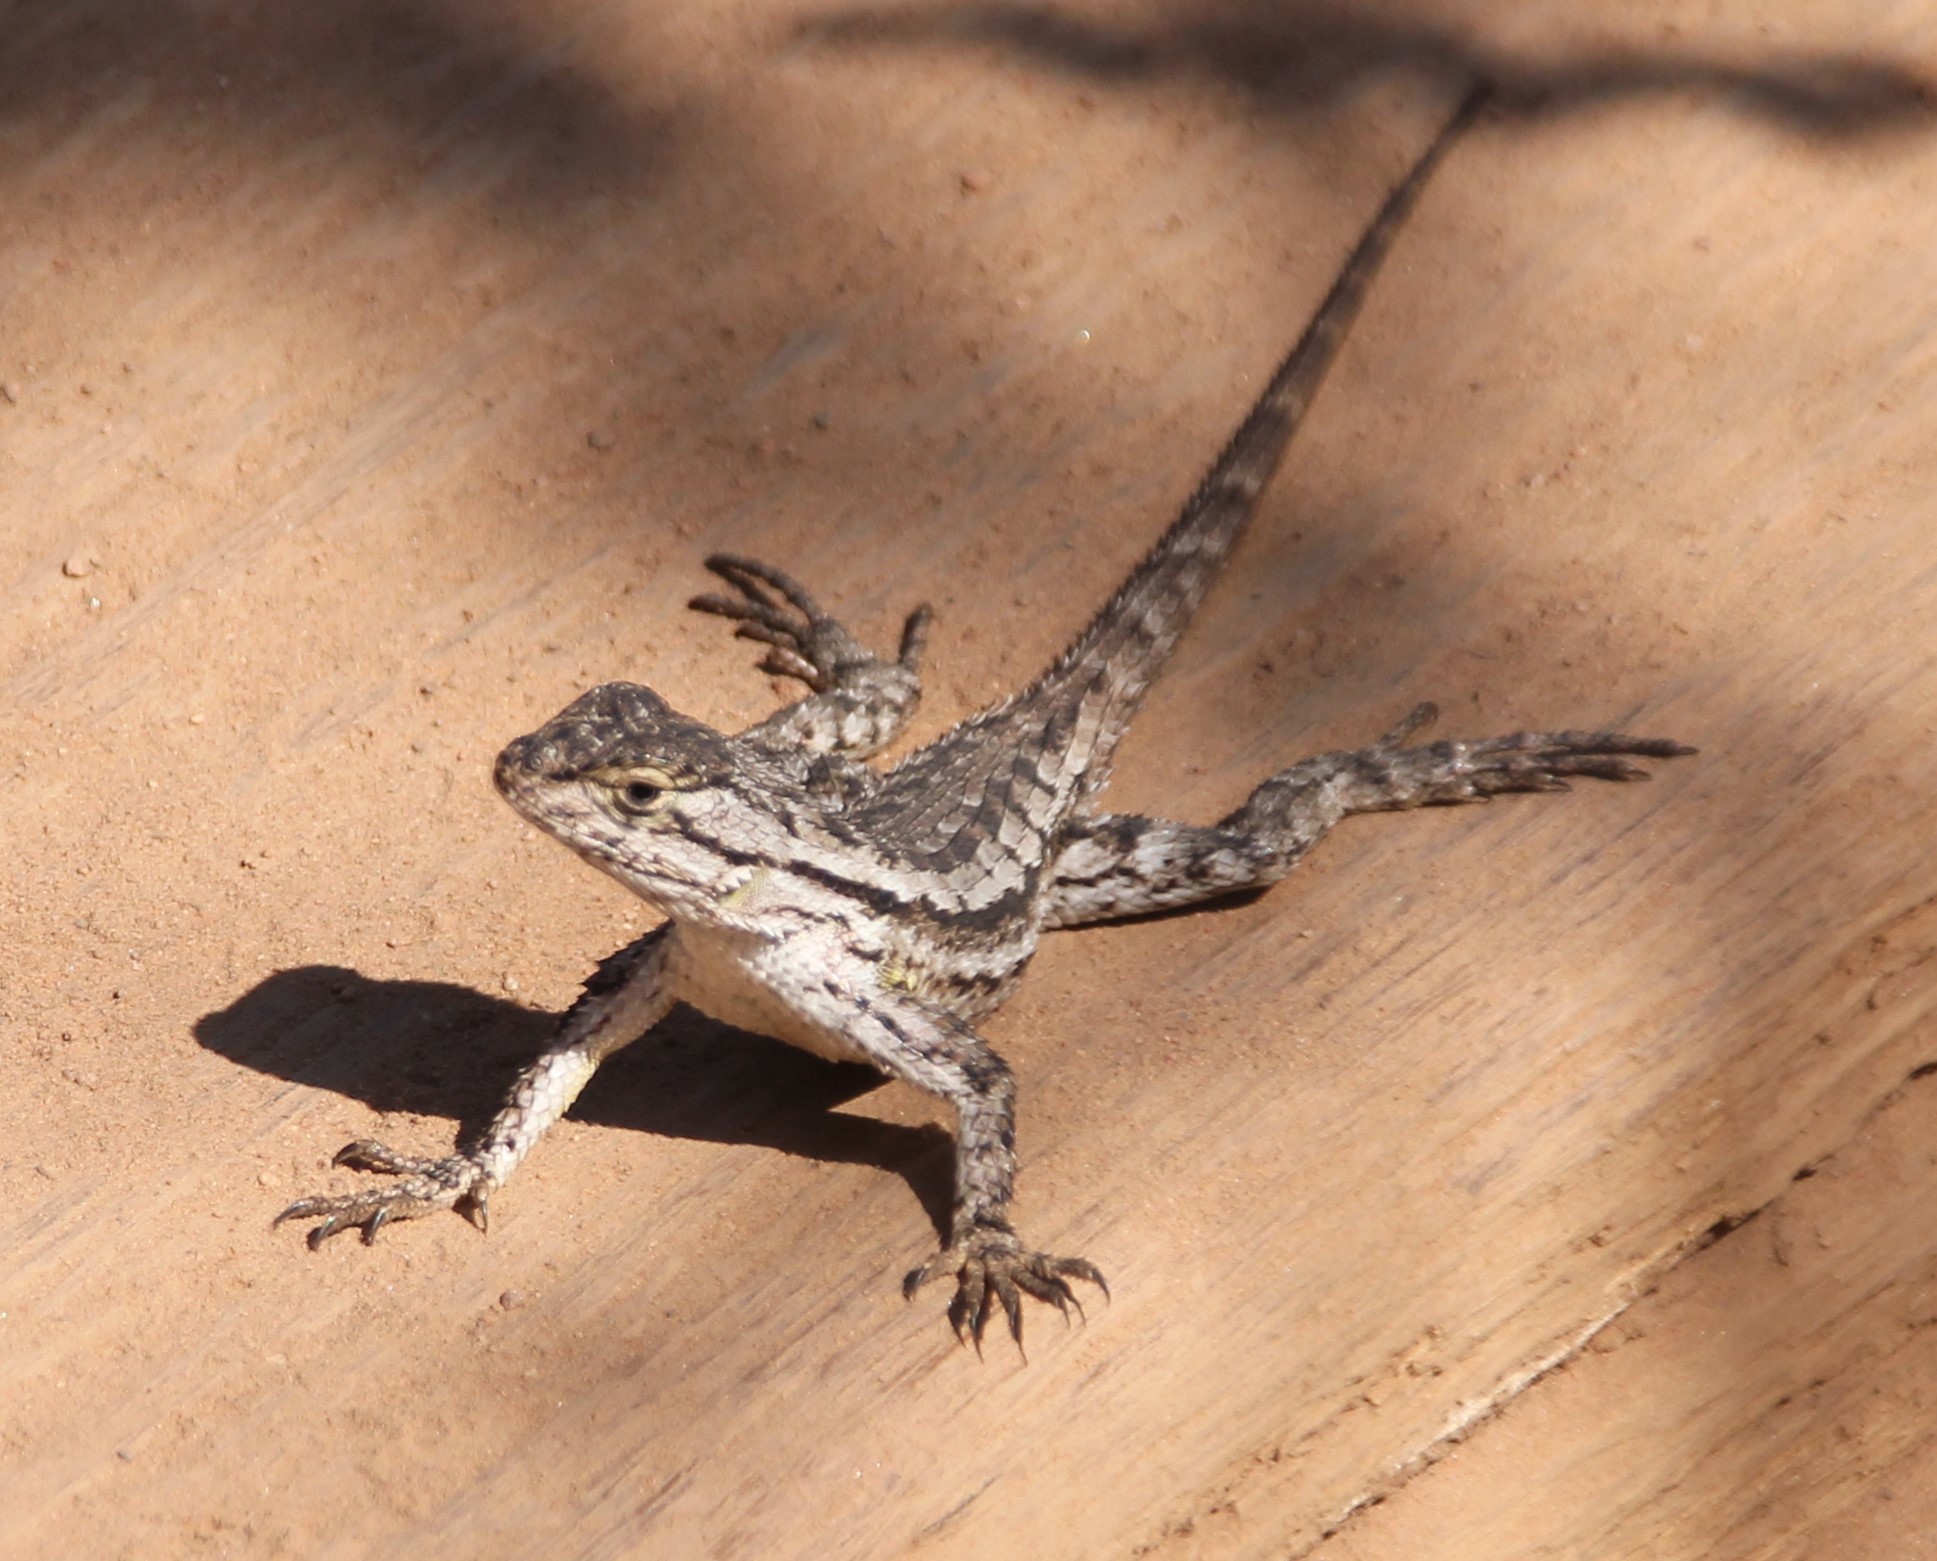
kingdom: Animalia
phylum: Chordata
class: Squamata
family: Phrynosomatidae
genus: Sceloporus
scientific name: Sceloporus occidentalis
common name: Western fence lizard
